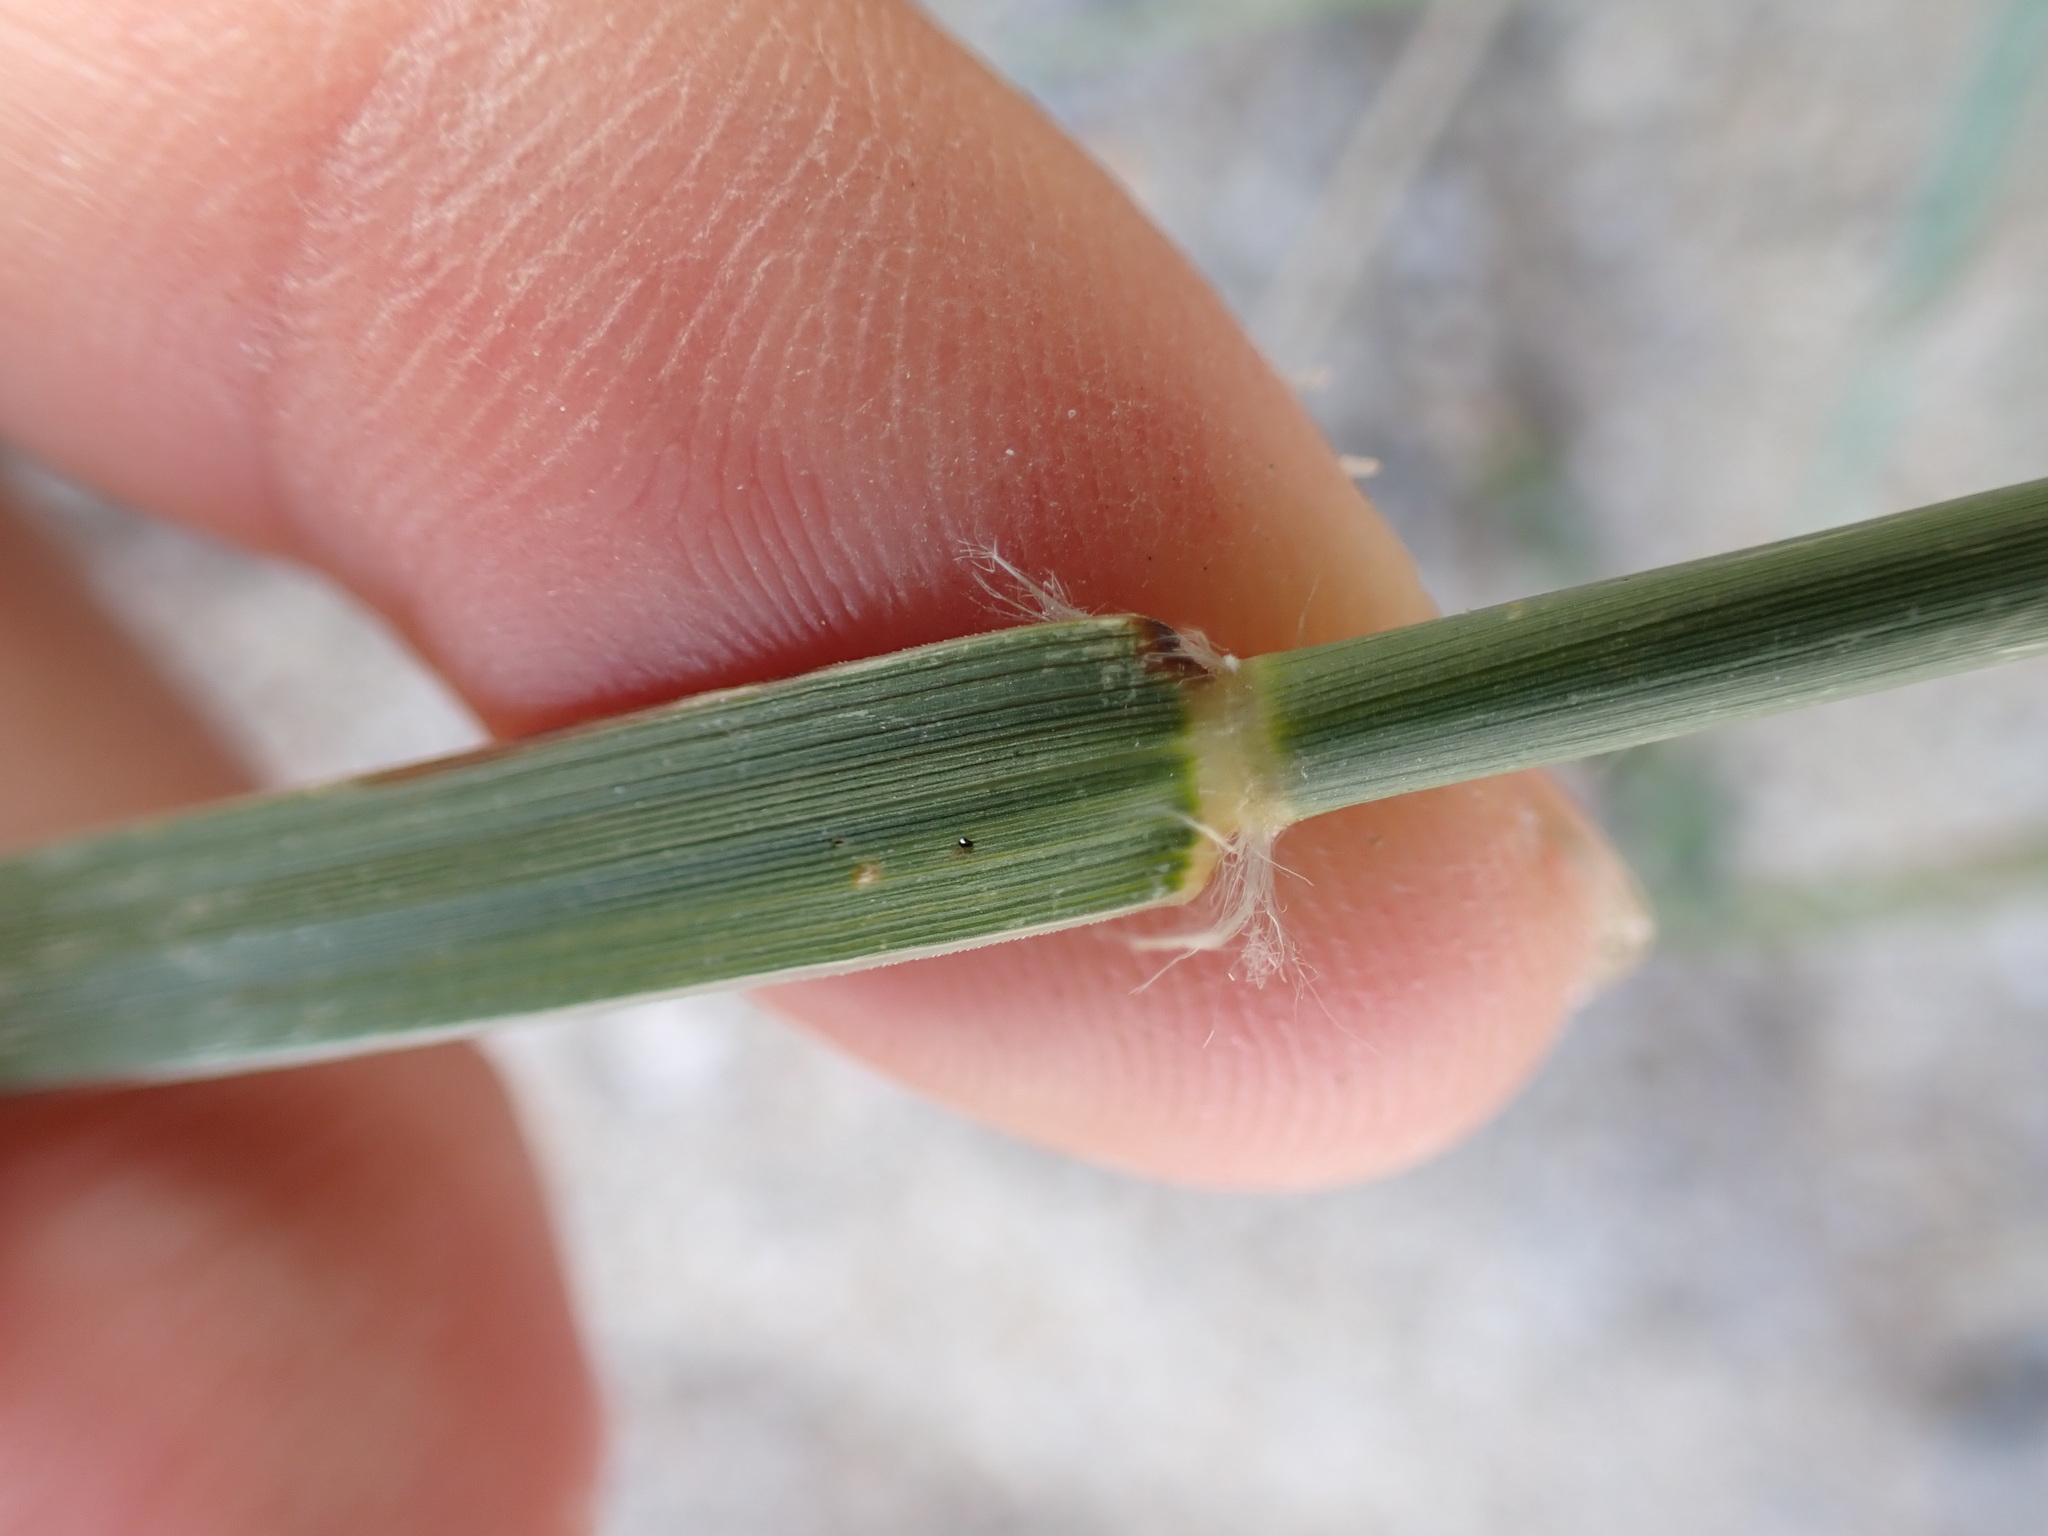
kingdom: Plantae
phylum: Tracheophyta
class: Liliopsida
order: Poales
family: Poaceae
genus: Sporobolus
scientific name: Sporobolus cryptandrus
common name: Sand dropseed
